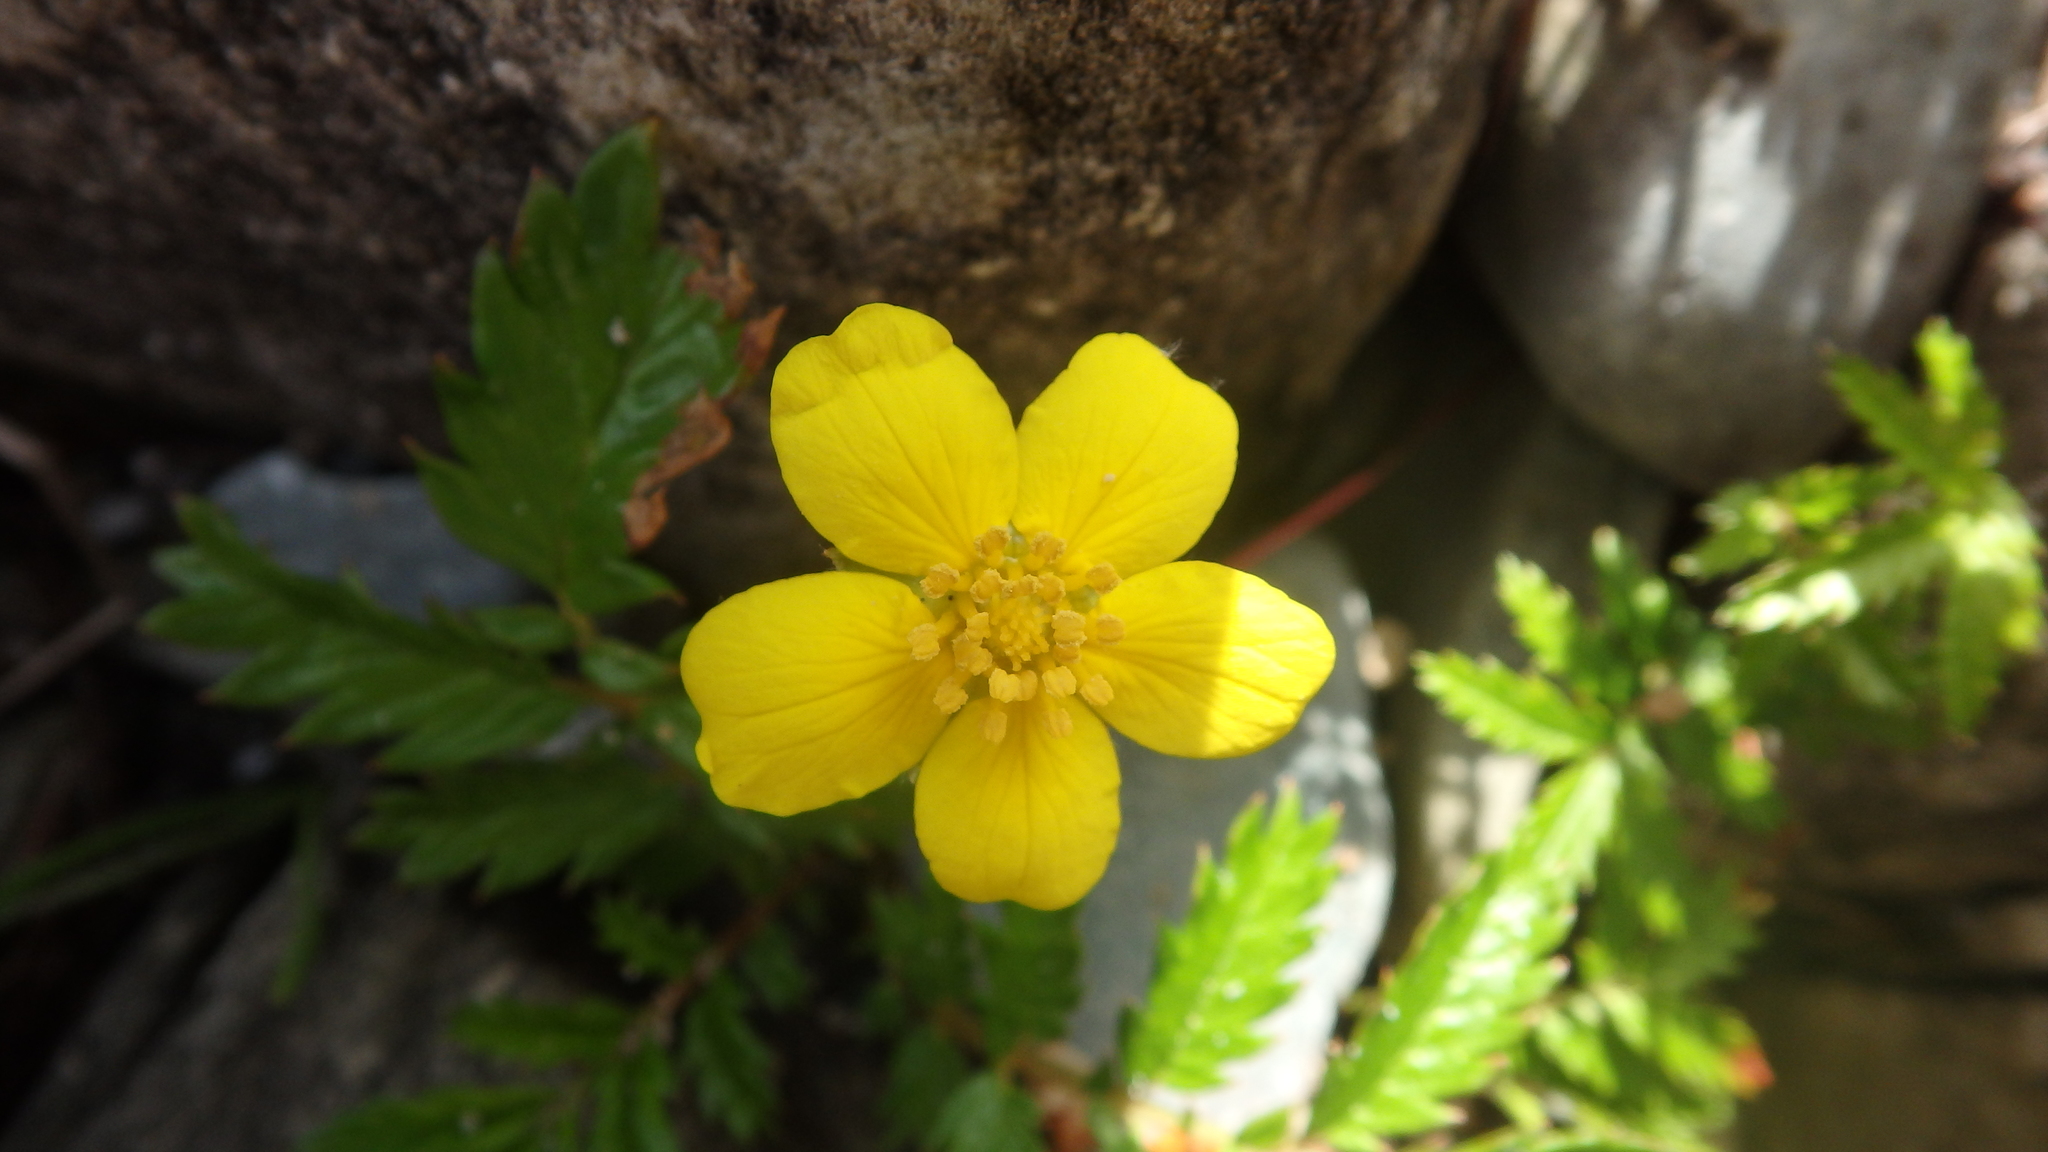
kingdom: Plantae
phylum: Tracheophyta
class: Magnoliopsida
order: Rosales
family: Rosaceae
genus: Argentina
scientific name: Argentina anserina
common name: Common silverweed
